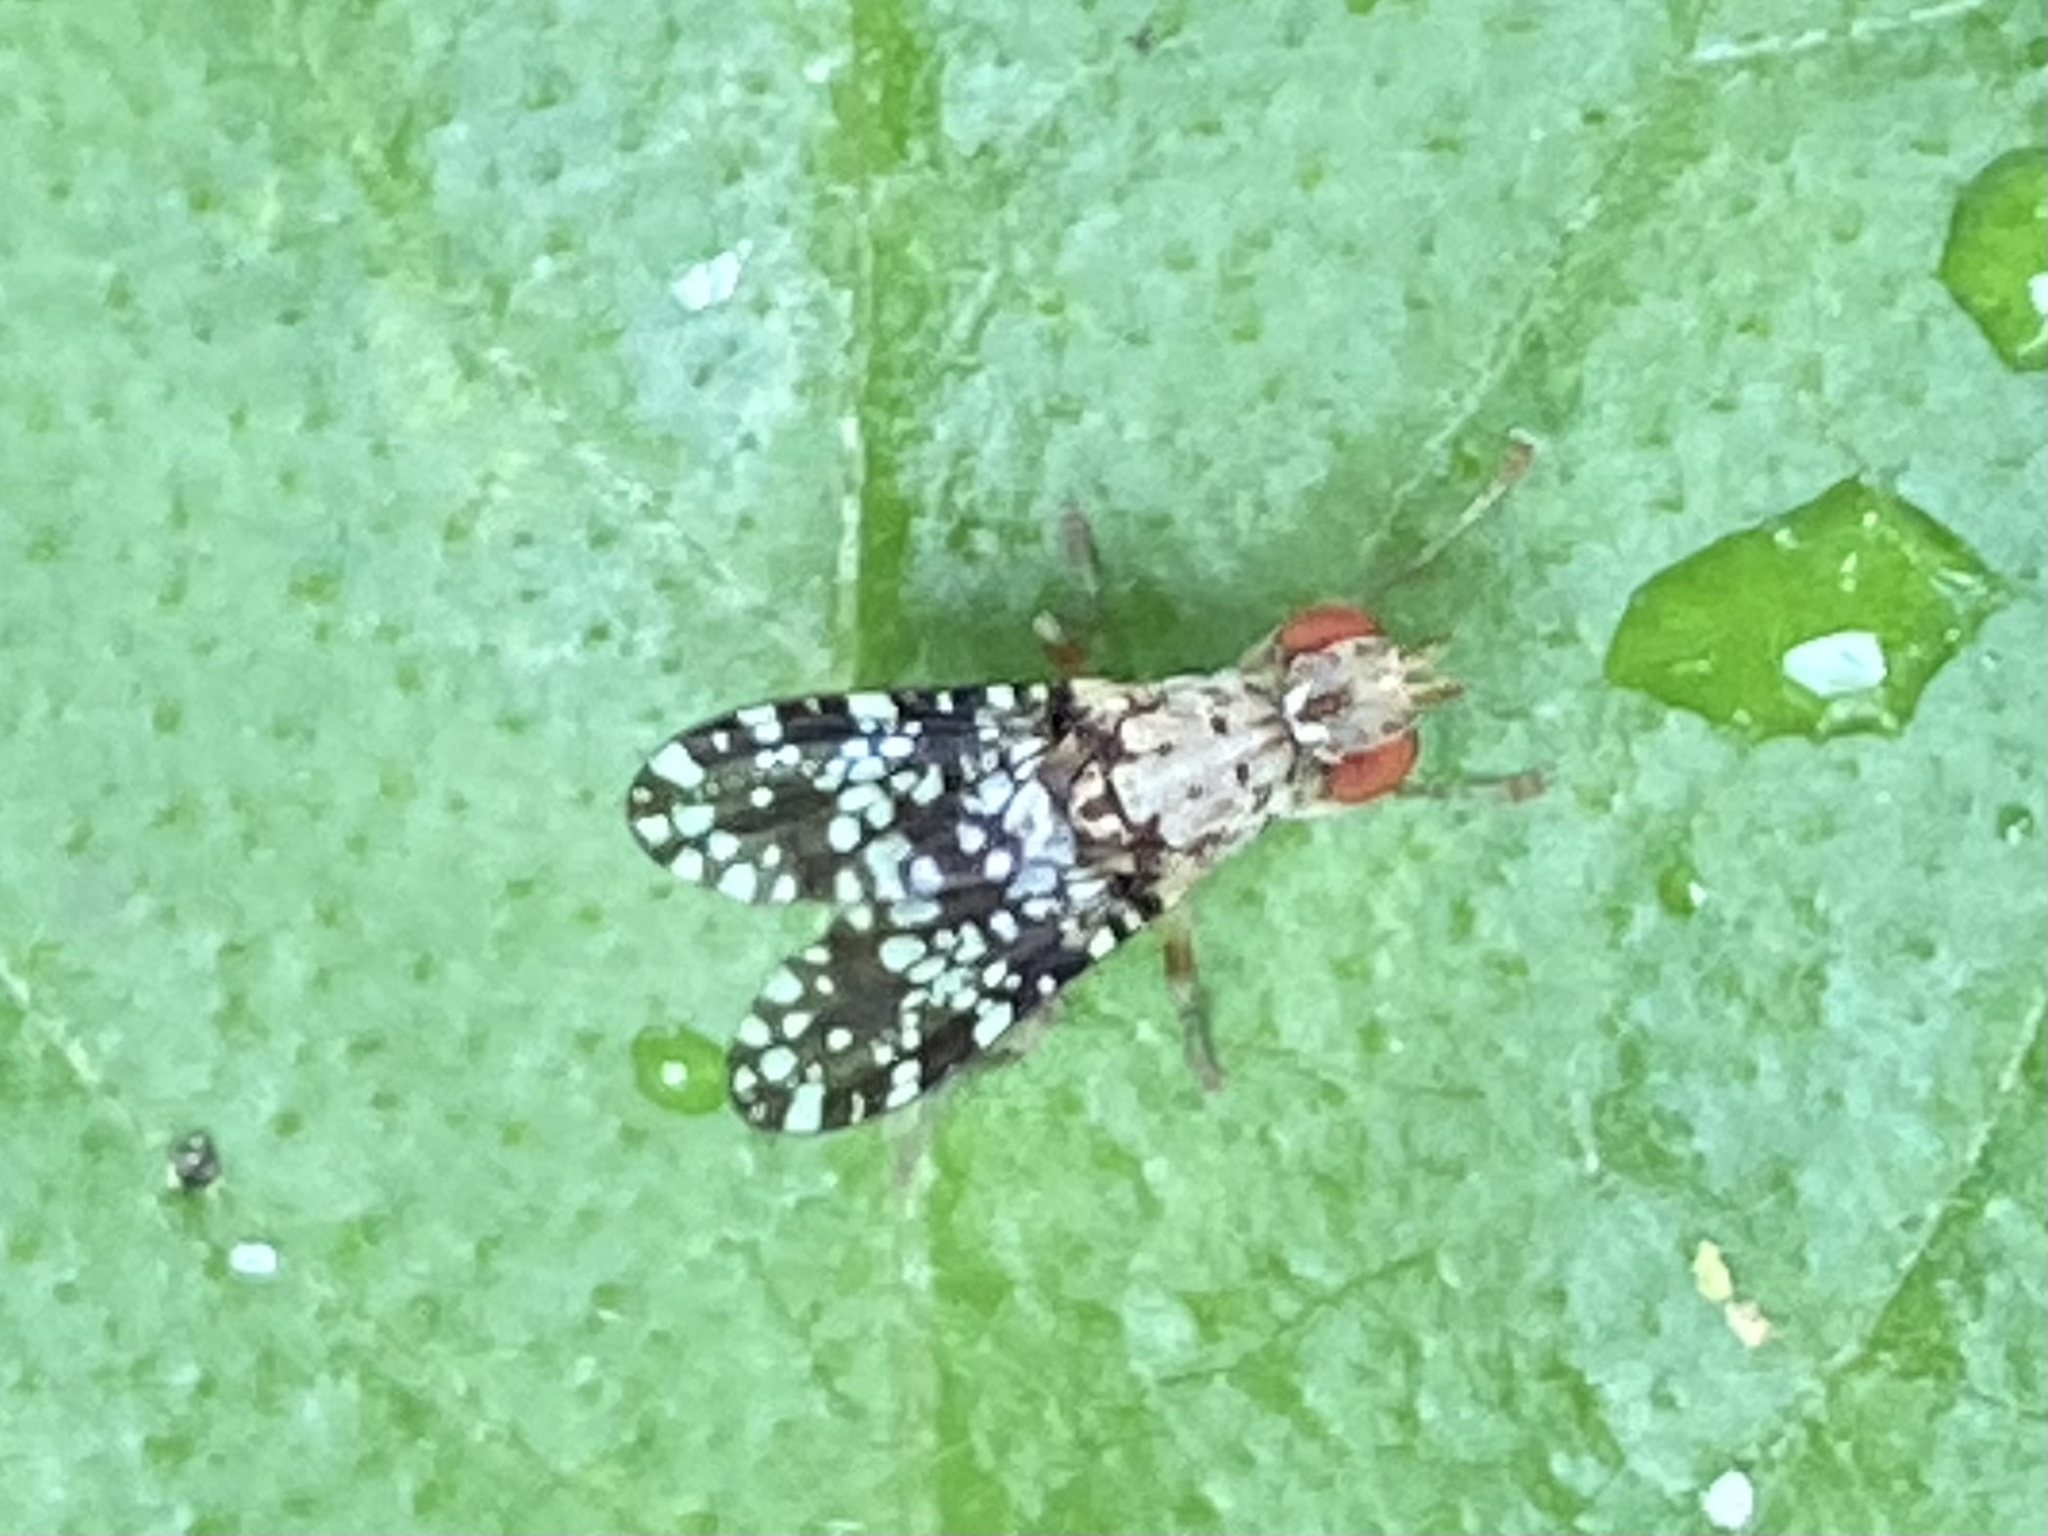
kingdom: Animalia
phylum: Arthropoda
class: Insecta
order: Diptera
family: Sciomyzidae
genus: Trypetoptera
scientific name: Trypetoptera punctulata
